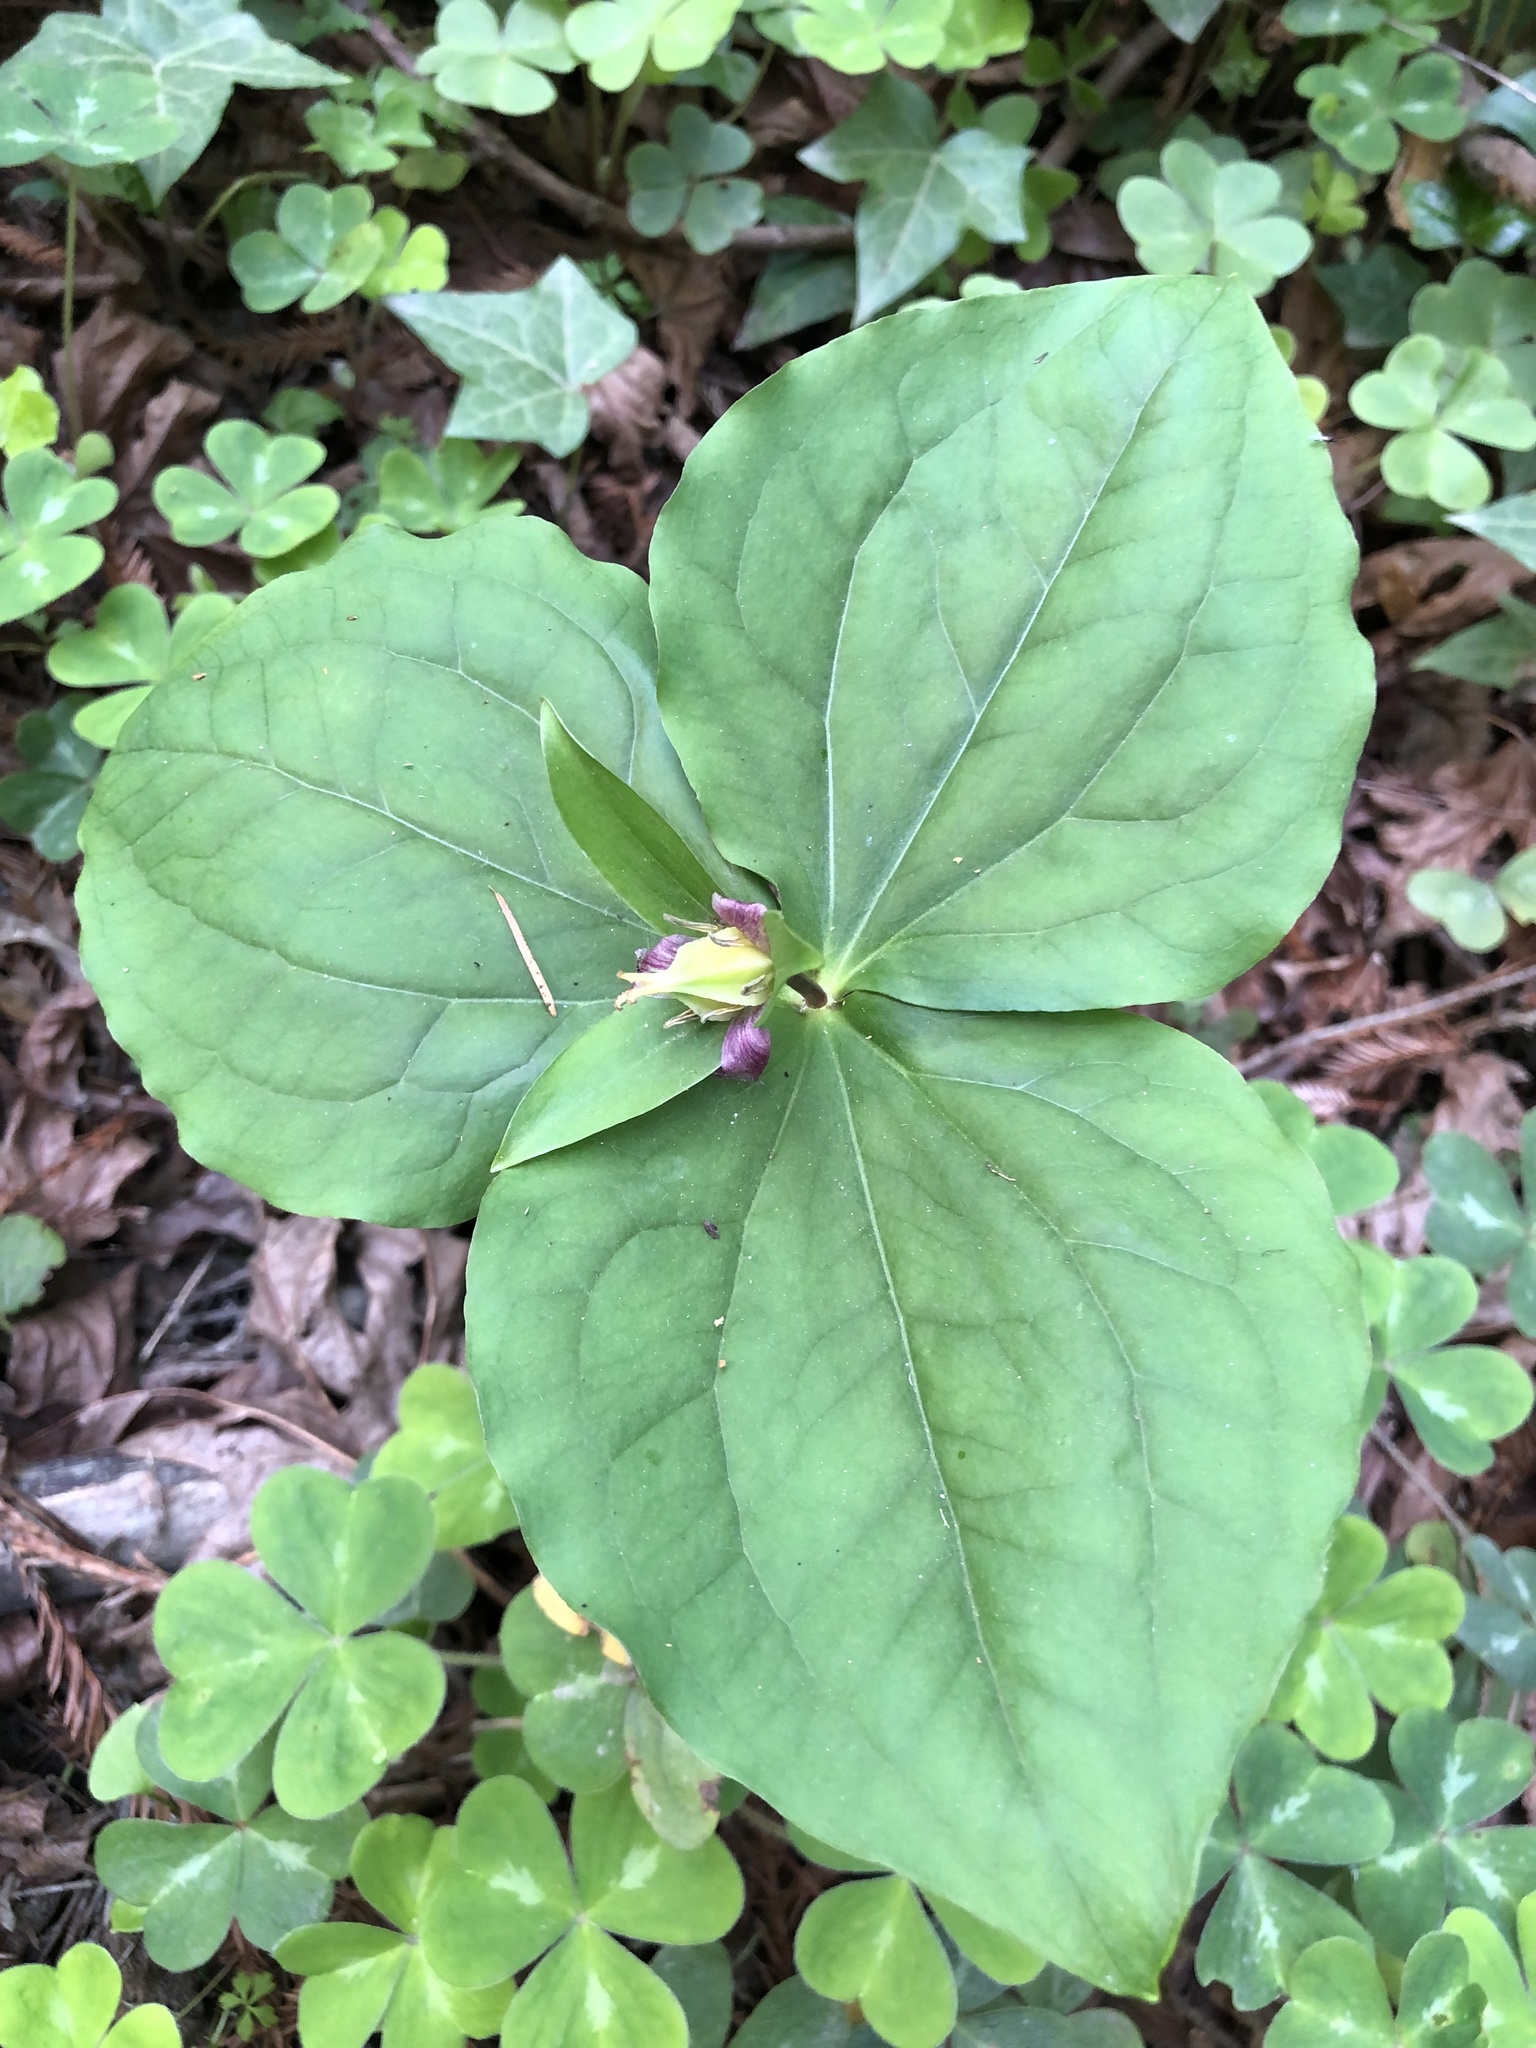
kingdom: Plantae
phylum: Tracheophyta
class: Liliopsida
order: Liliales
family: Melanthiaceae
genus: Trillium
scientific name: Trillium ovatum
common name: Pacific trillium
